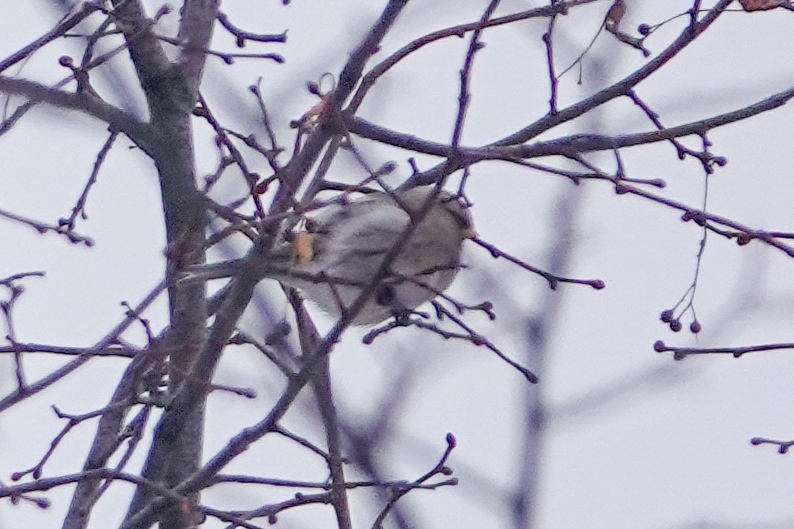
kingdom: Animalia
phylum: Chordata
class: Aves
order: Passeriformes
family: Fringillidae
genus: Acanthis
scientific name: Acanthis hornemanni
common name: Arctic redpoll
